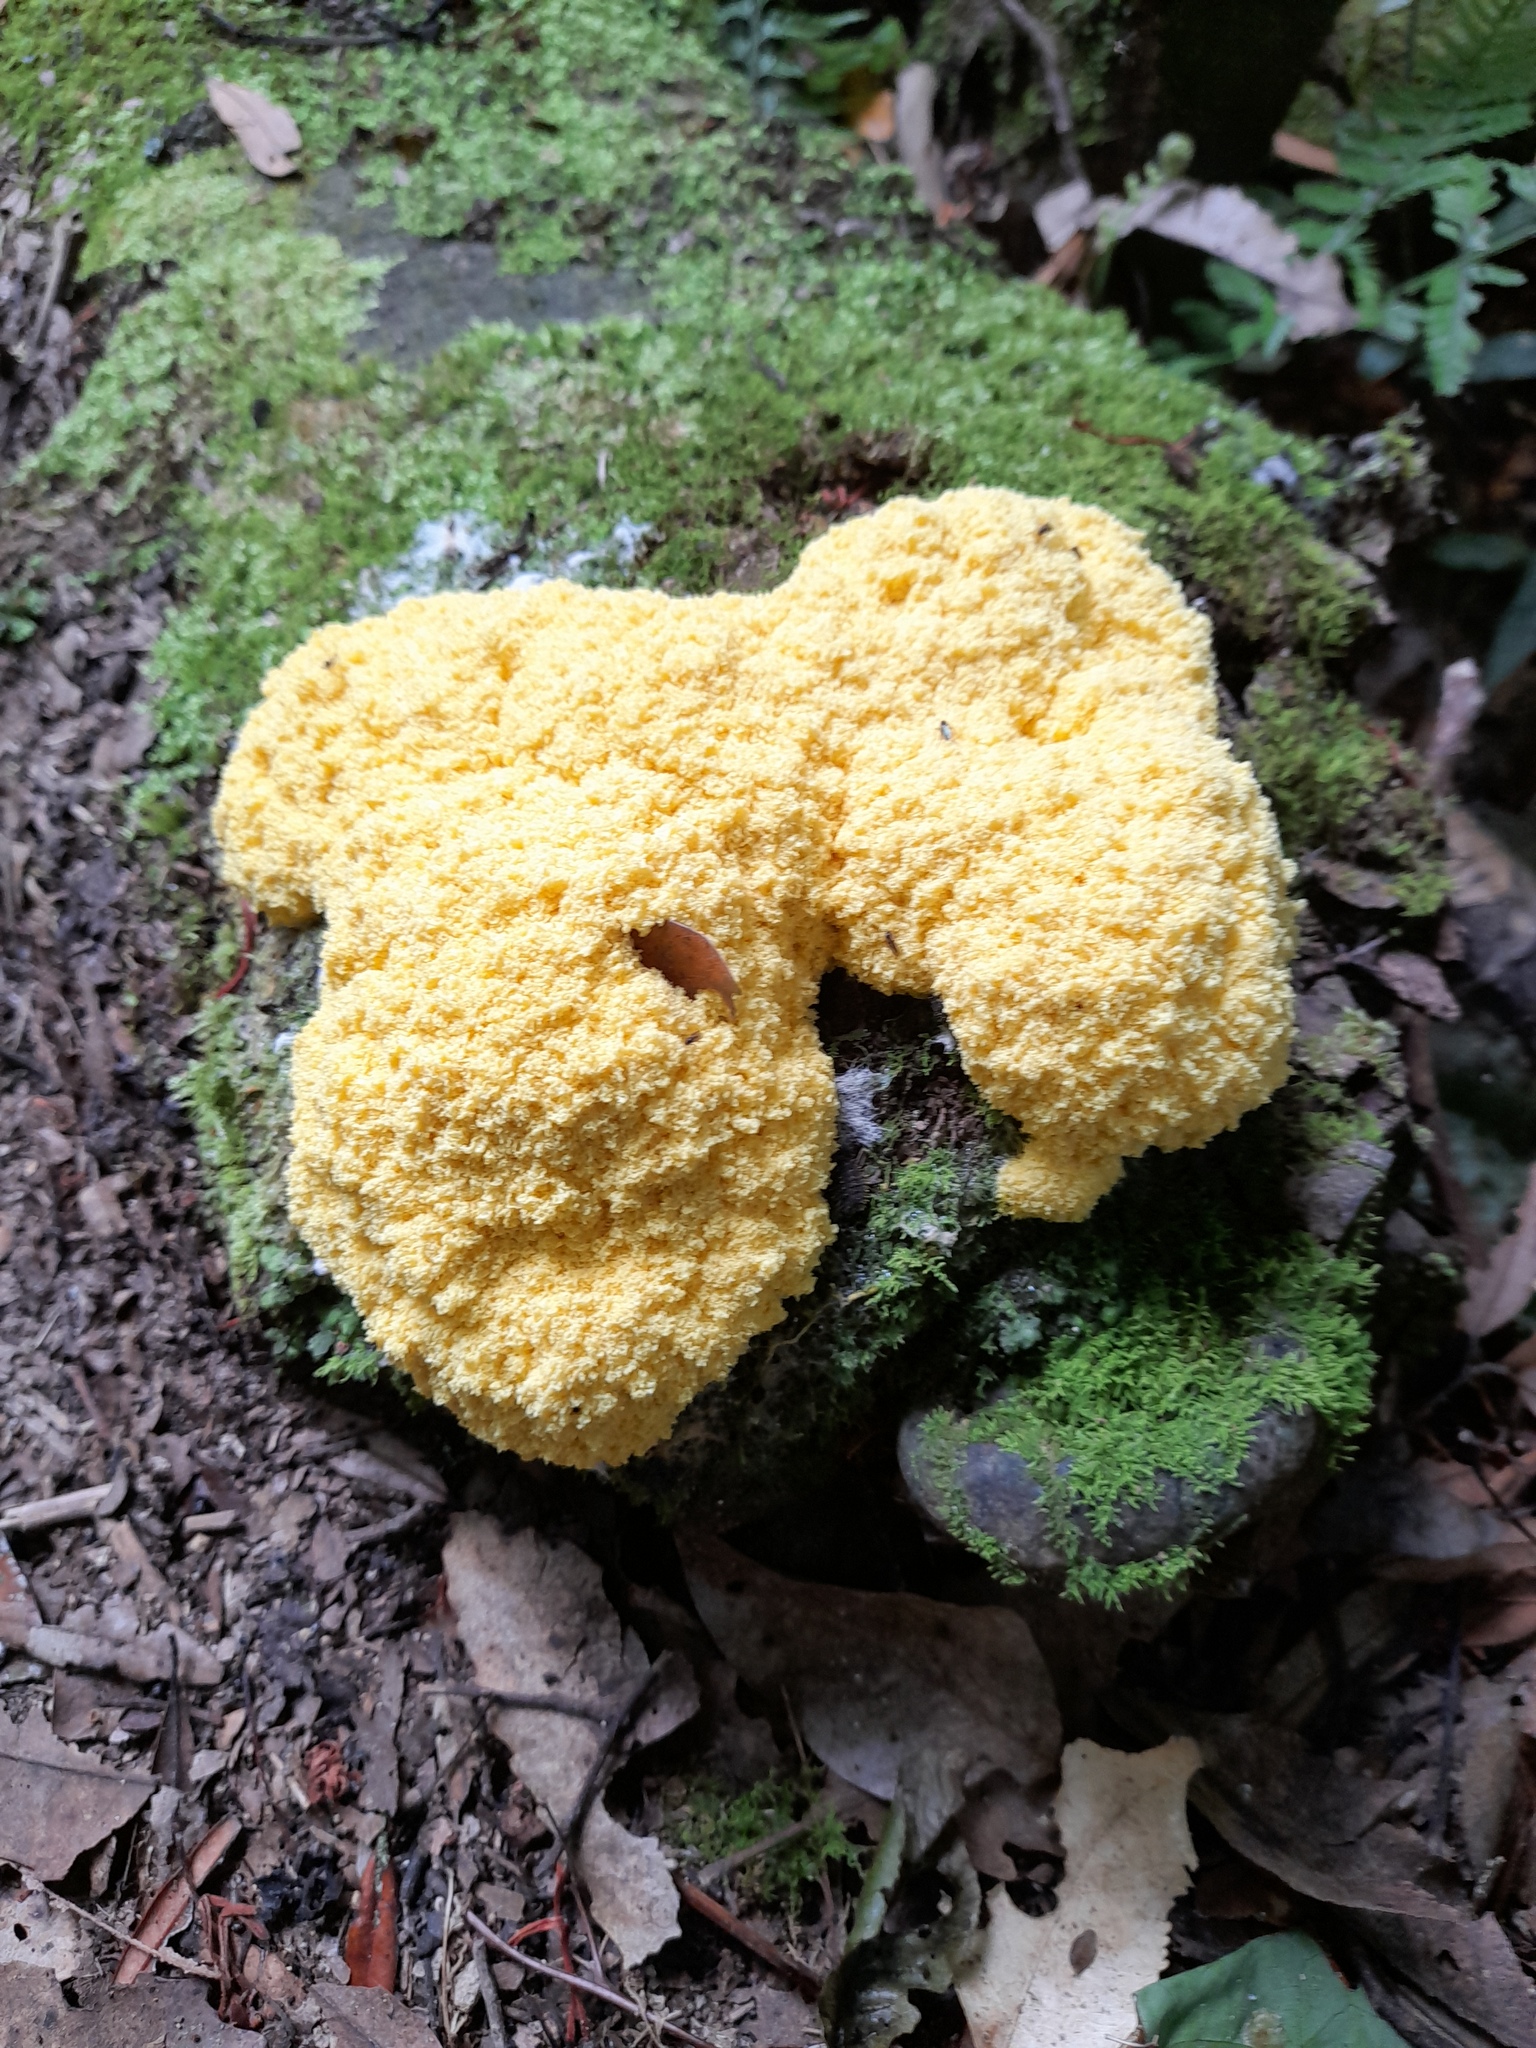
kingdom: Protozoa
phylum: Mycetozoa
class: Myxomycetes
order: Physarales
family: Physaraceae
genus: Fuligo
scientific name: Fuligo septica
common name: Dog vomit slime mold
